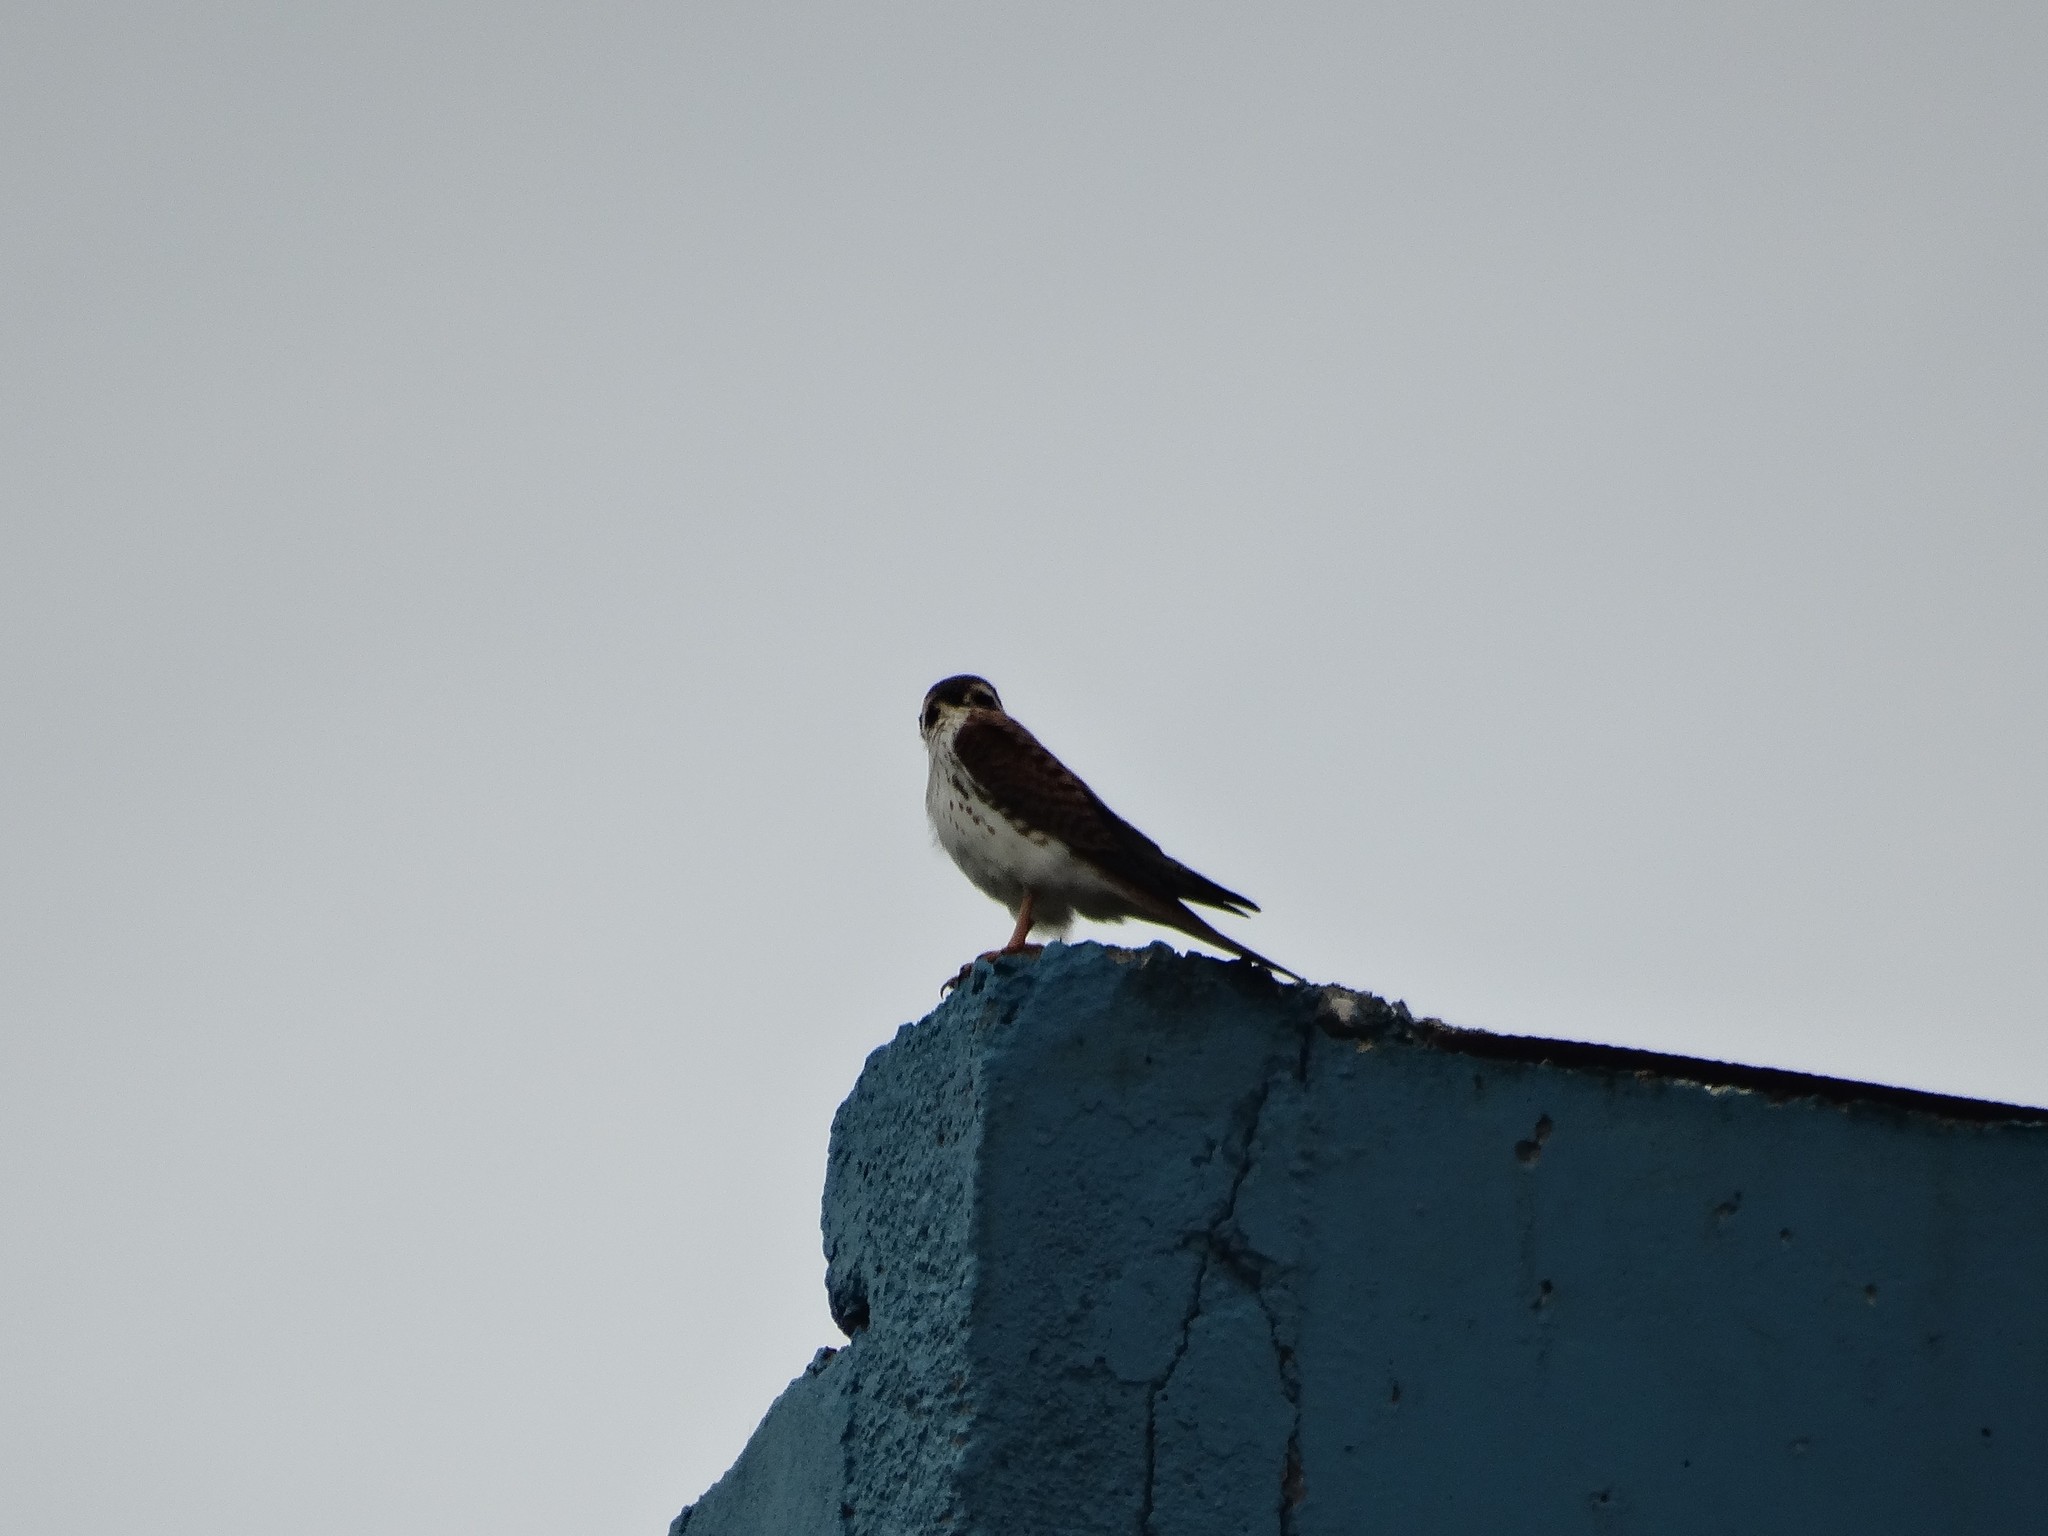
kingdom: Animalia
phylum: Chordata
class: Aves
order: Falconiformes
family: Falconidae
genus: Falco
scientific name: Falco sparverius
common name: American kestrel
